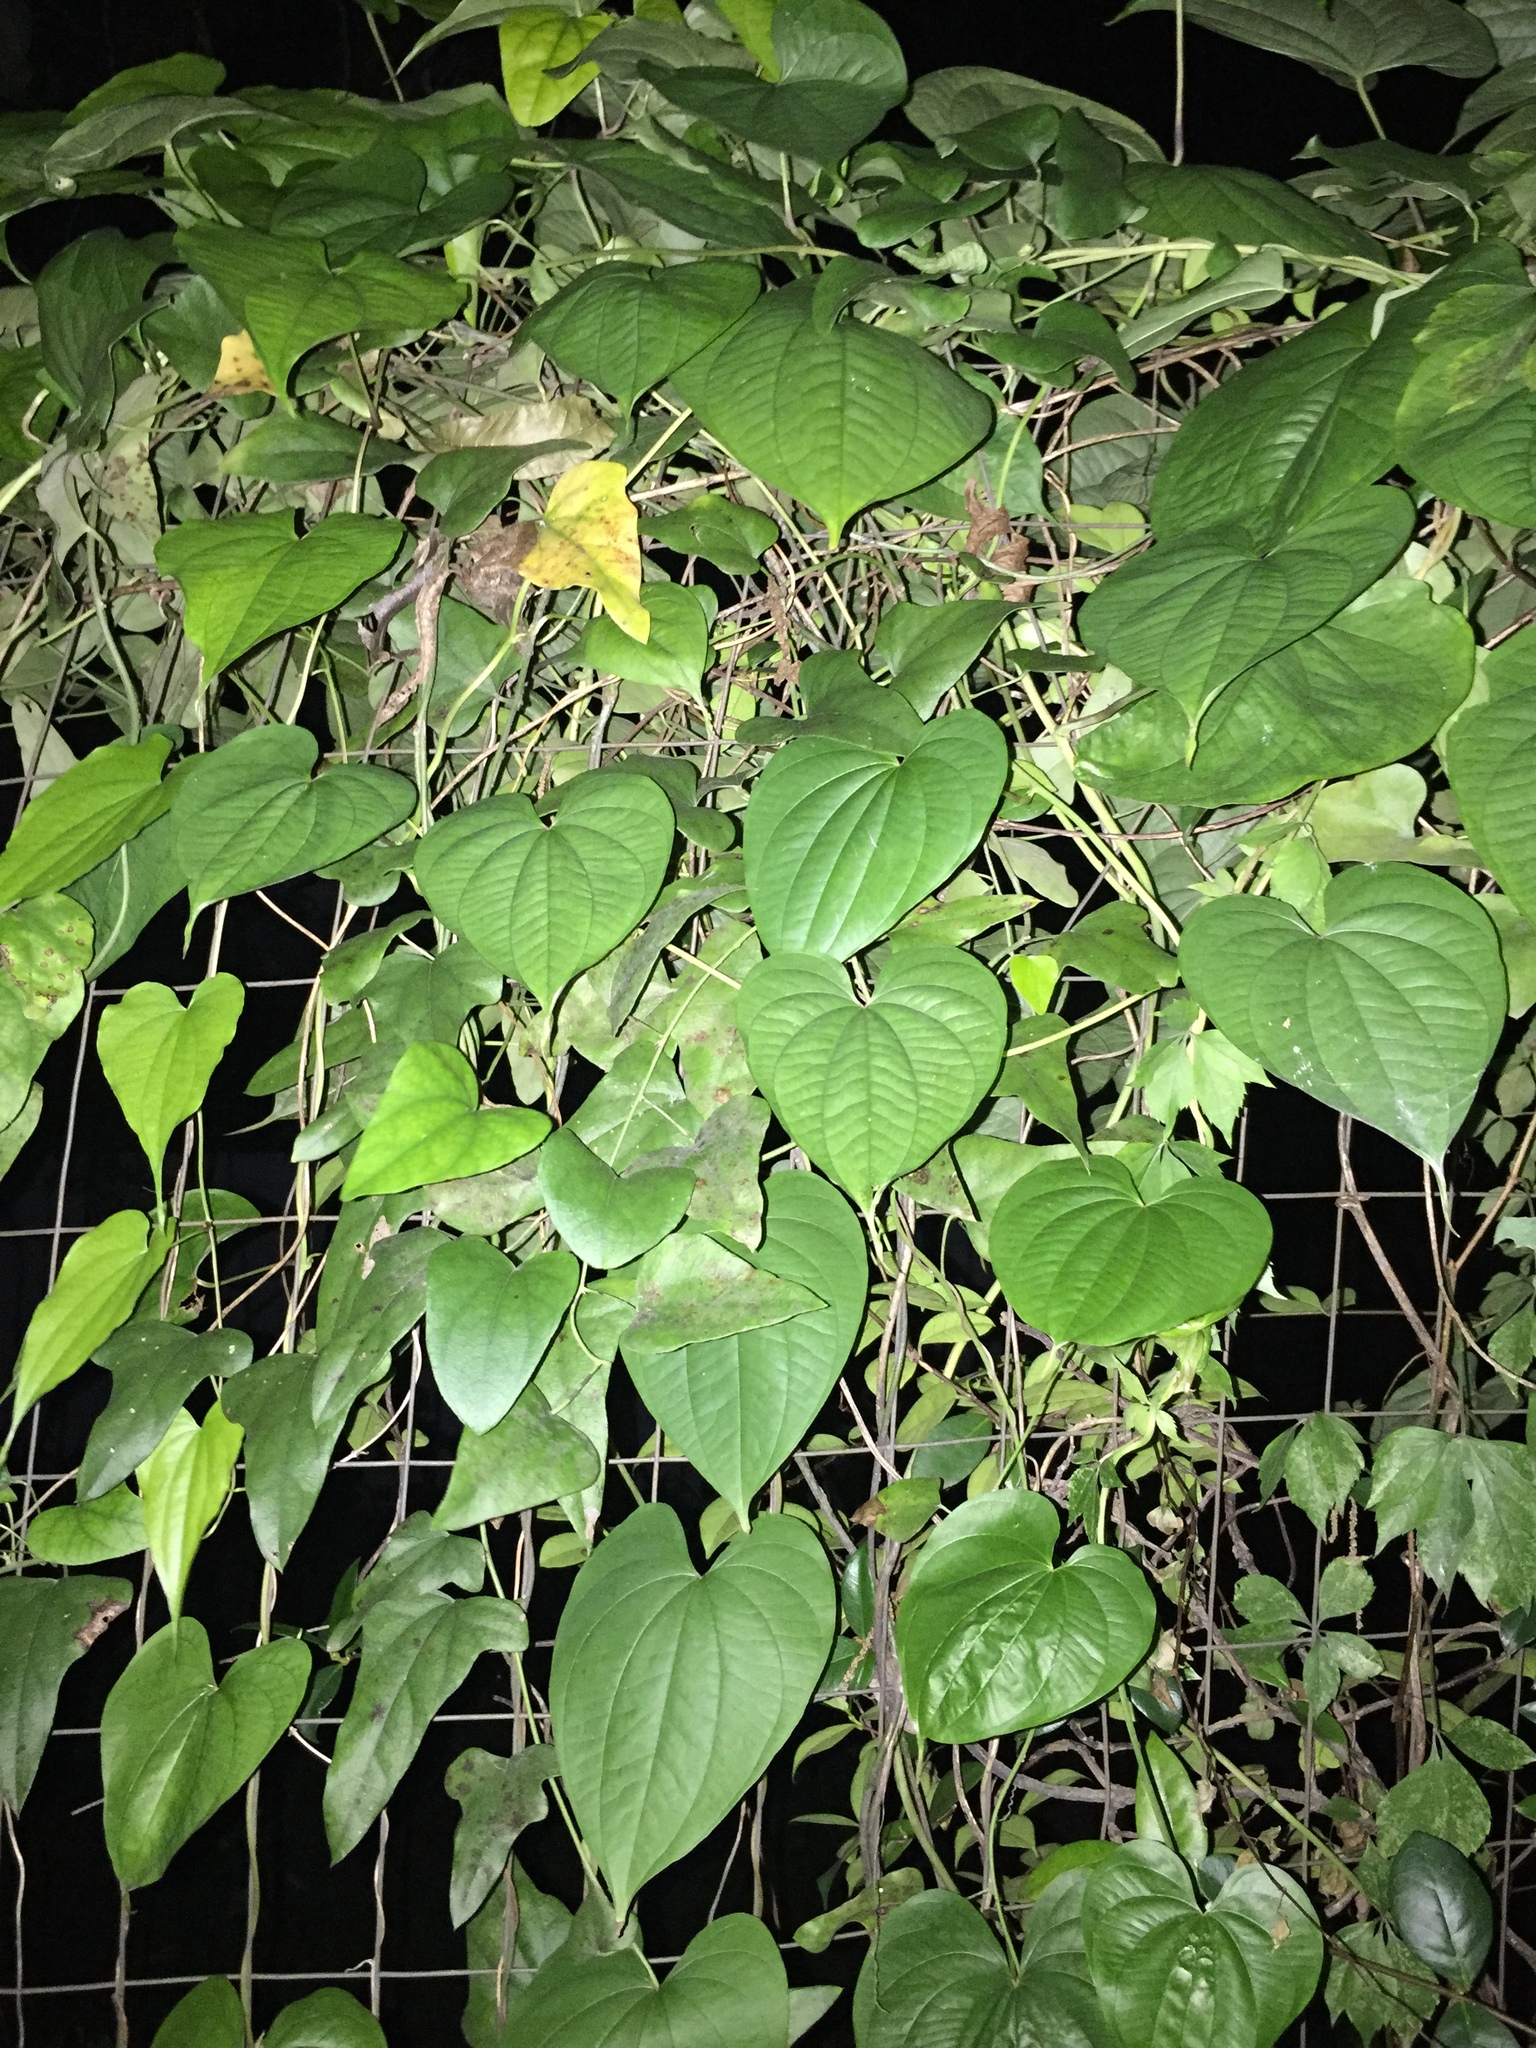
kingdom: Plantae
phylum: Tracheophyta
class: Liliopsida
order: Dioscoreales
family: Dioscoreaceae
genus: Dioscorea
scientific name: Dioscorea bulbifera
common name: Air yam
